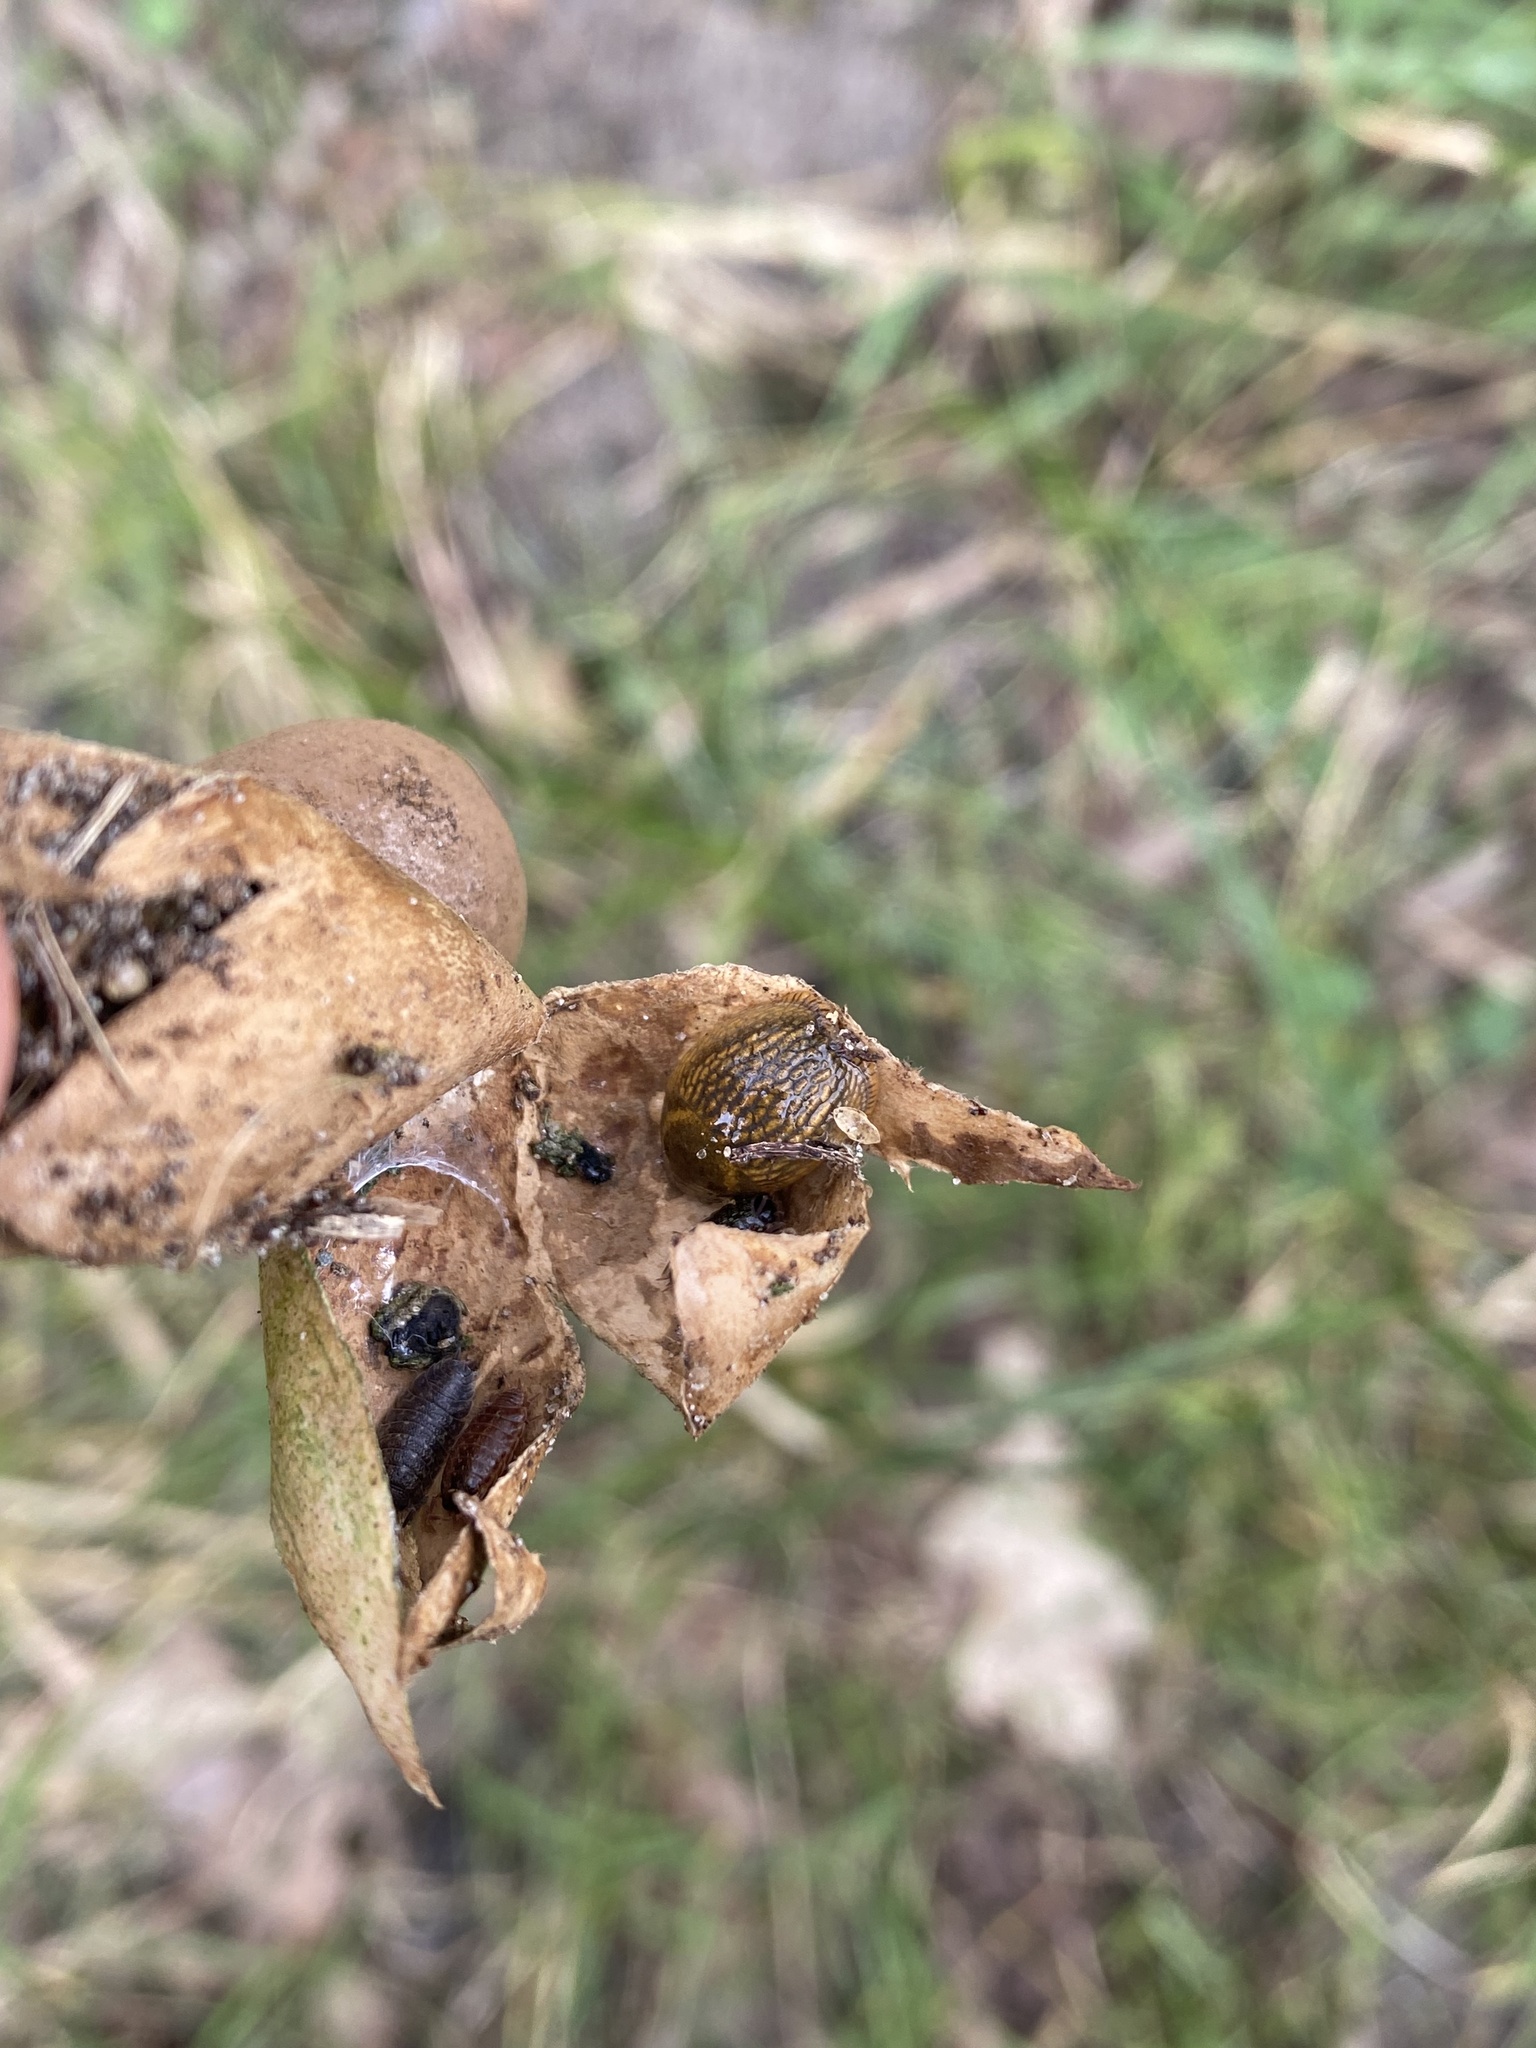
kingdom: Fungi
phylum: Basidiomycota
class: Agaricomycetes
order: Geastrales
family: Geastraceae
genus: Myriostoma
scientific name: Myriostoma coliforme
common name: Pepper pot
